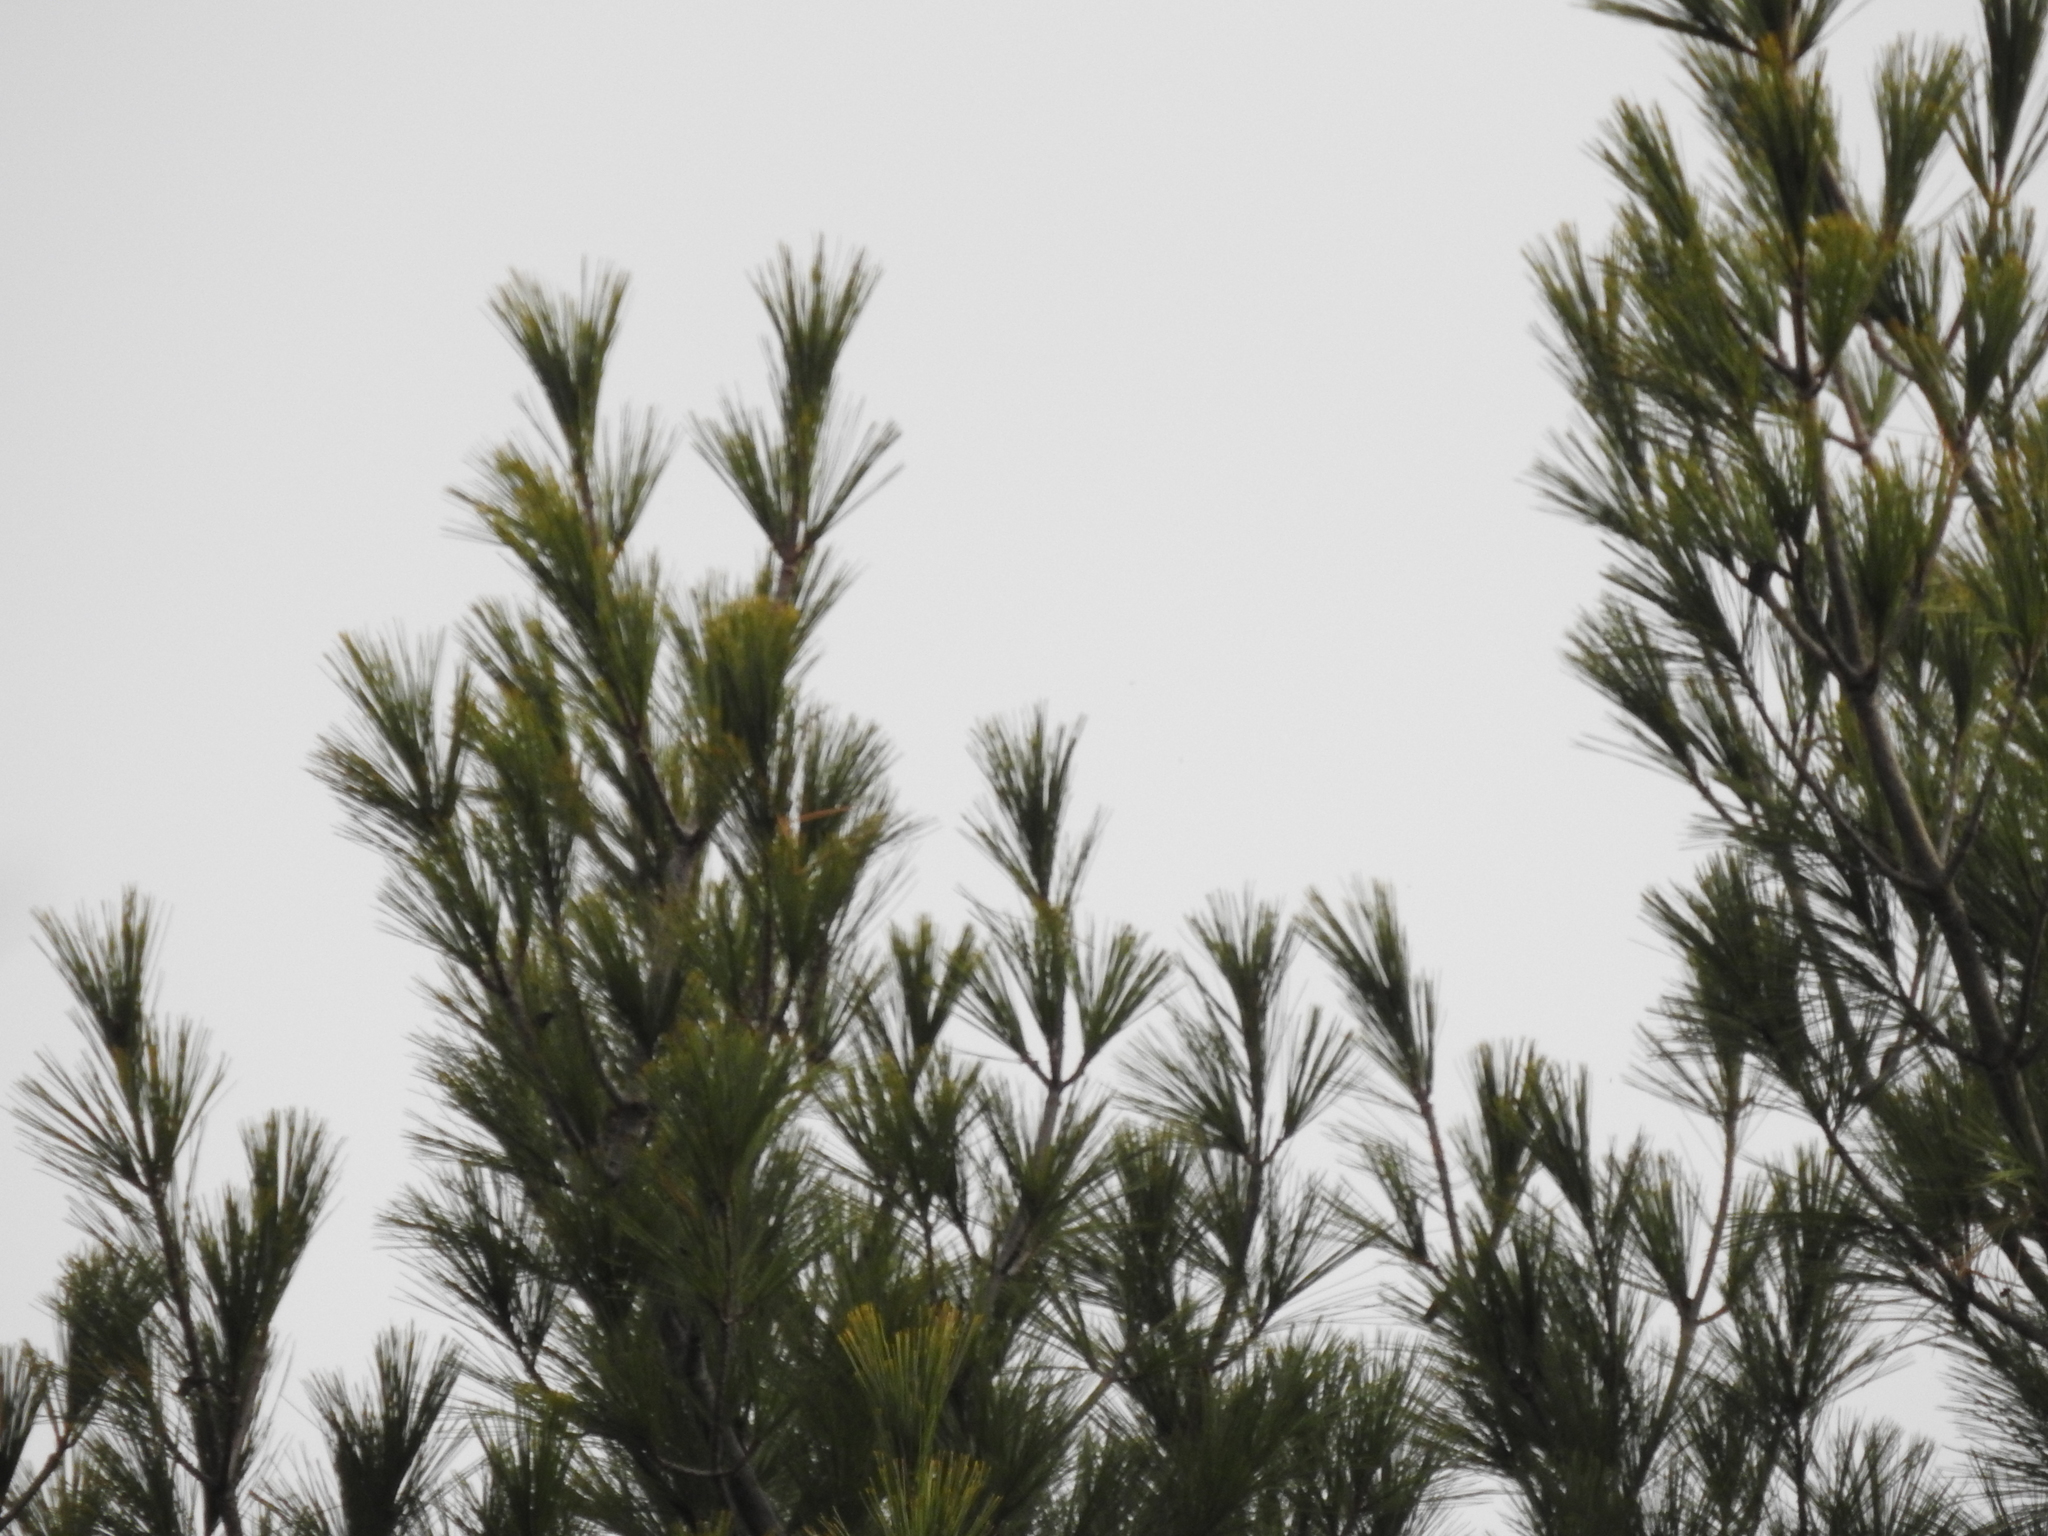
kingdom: Plantae
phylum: Tracheophyta
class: Pinopsida
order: Pinales
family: Pinaceae
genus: Pinus
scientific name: Pinus strobus
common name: Weymouth pine
